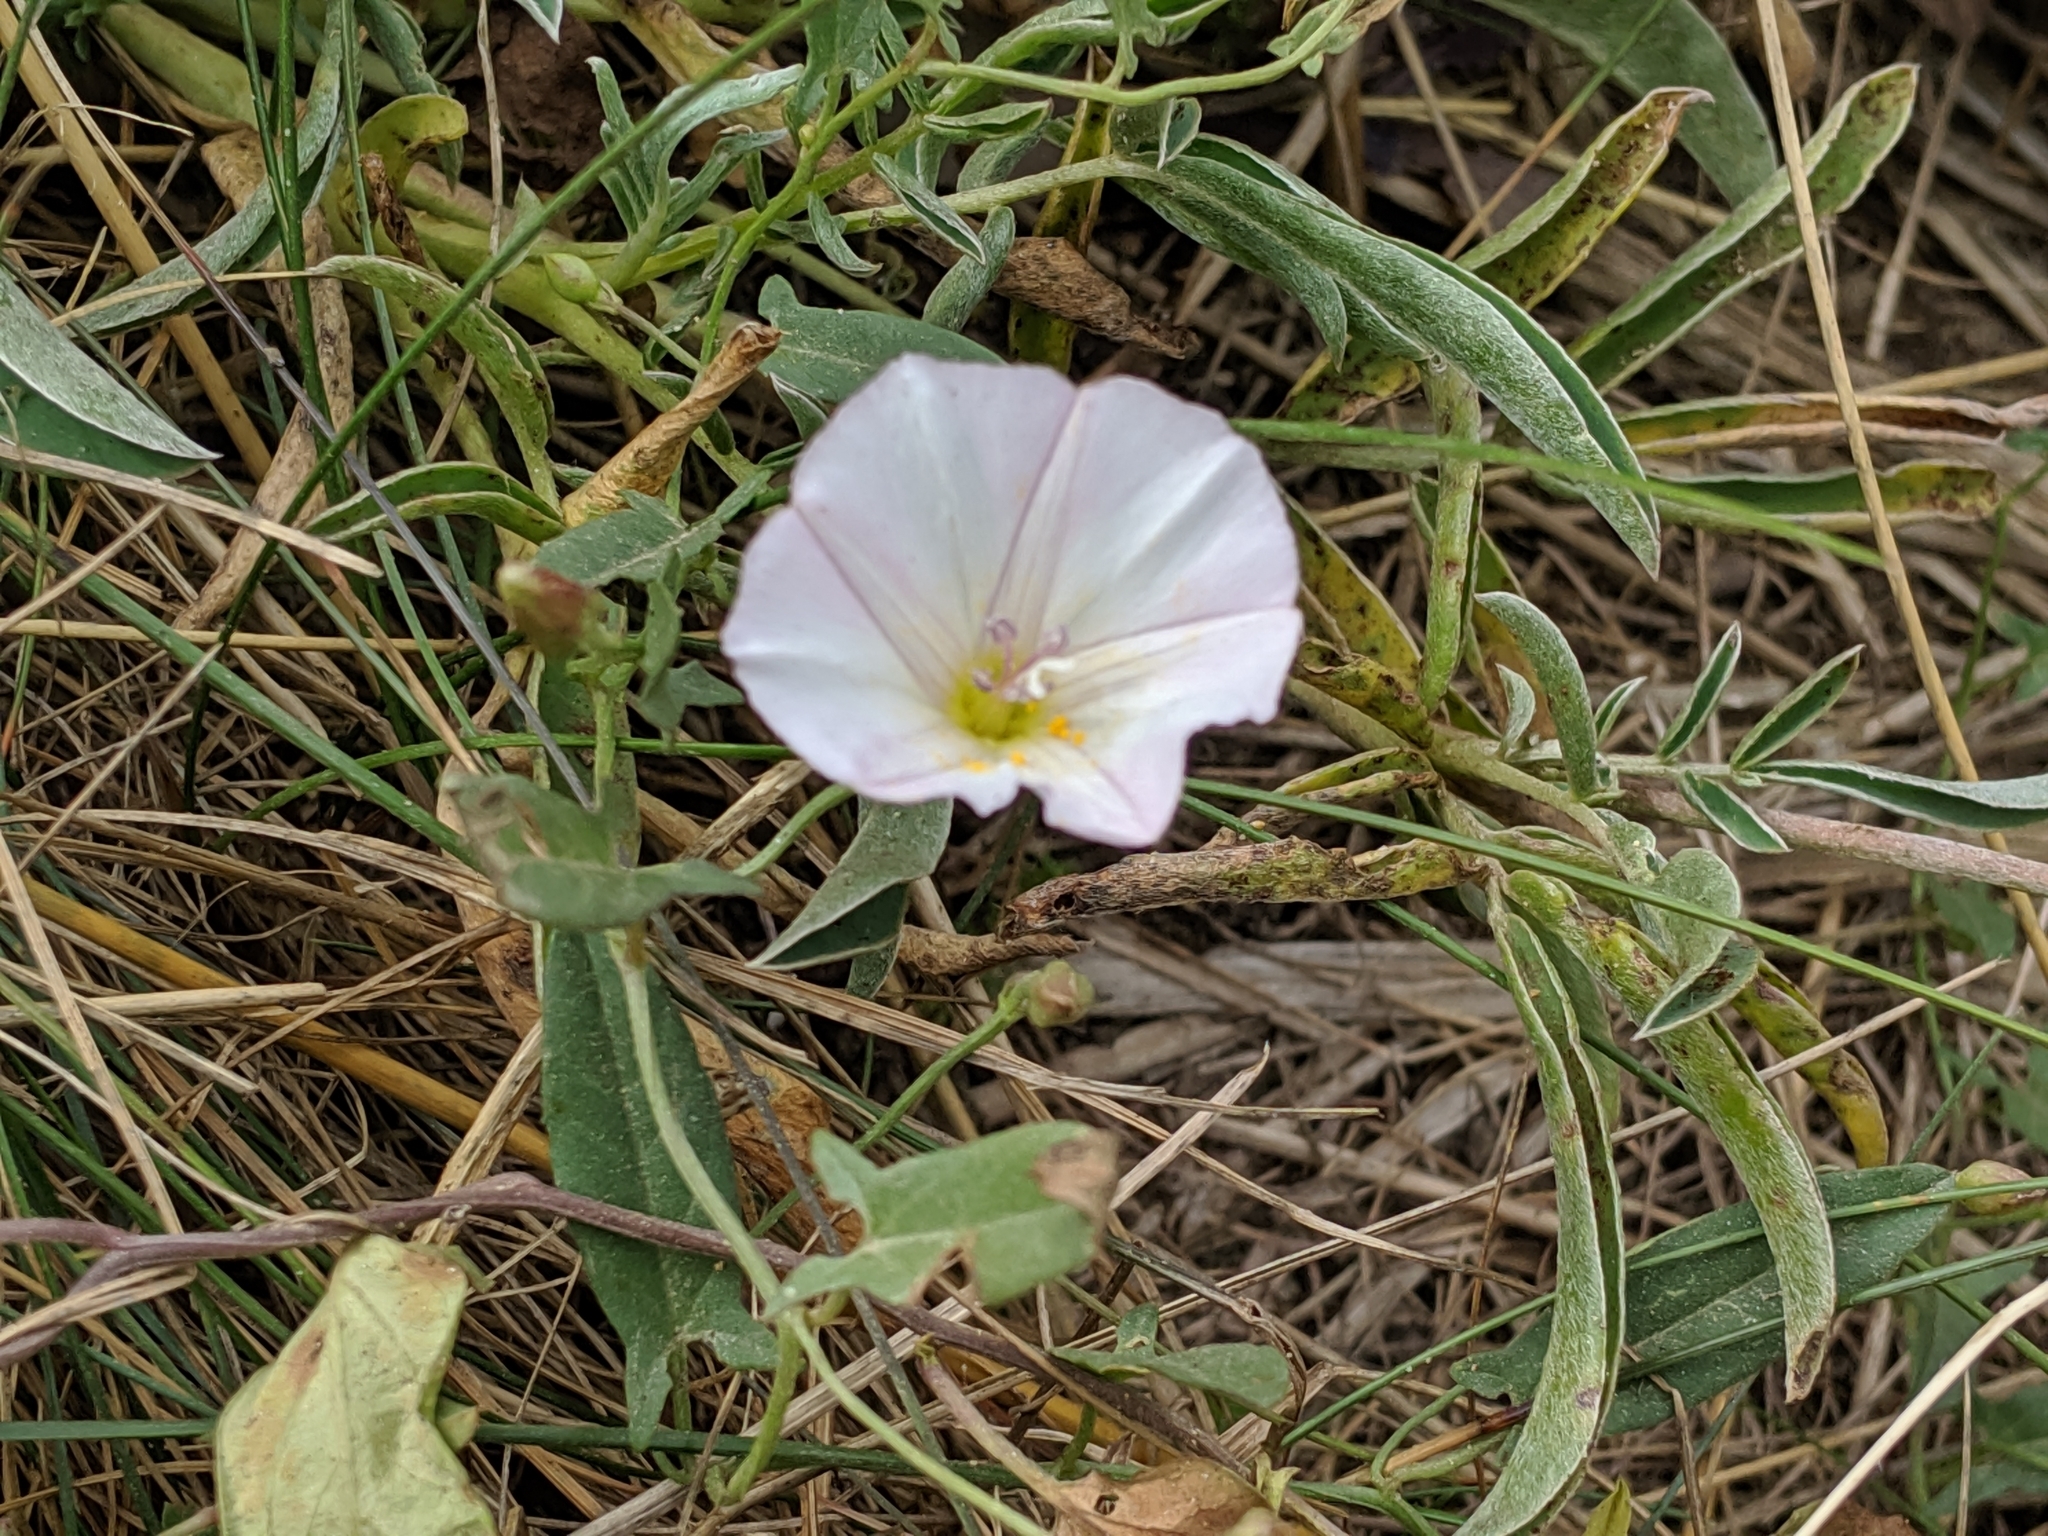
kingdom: Plantae
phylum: Tracheophyta
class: Magnoliopsida
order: Solanales
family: Convolvulaceae
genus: Convolvulus
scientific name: Convolvulus arvensis
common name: Field bindweed
